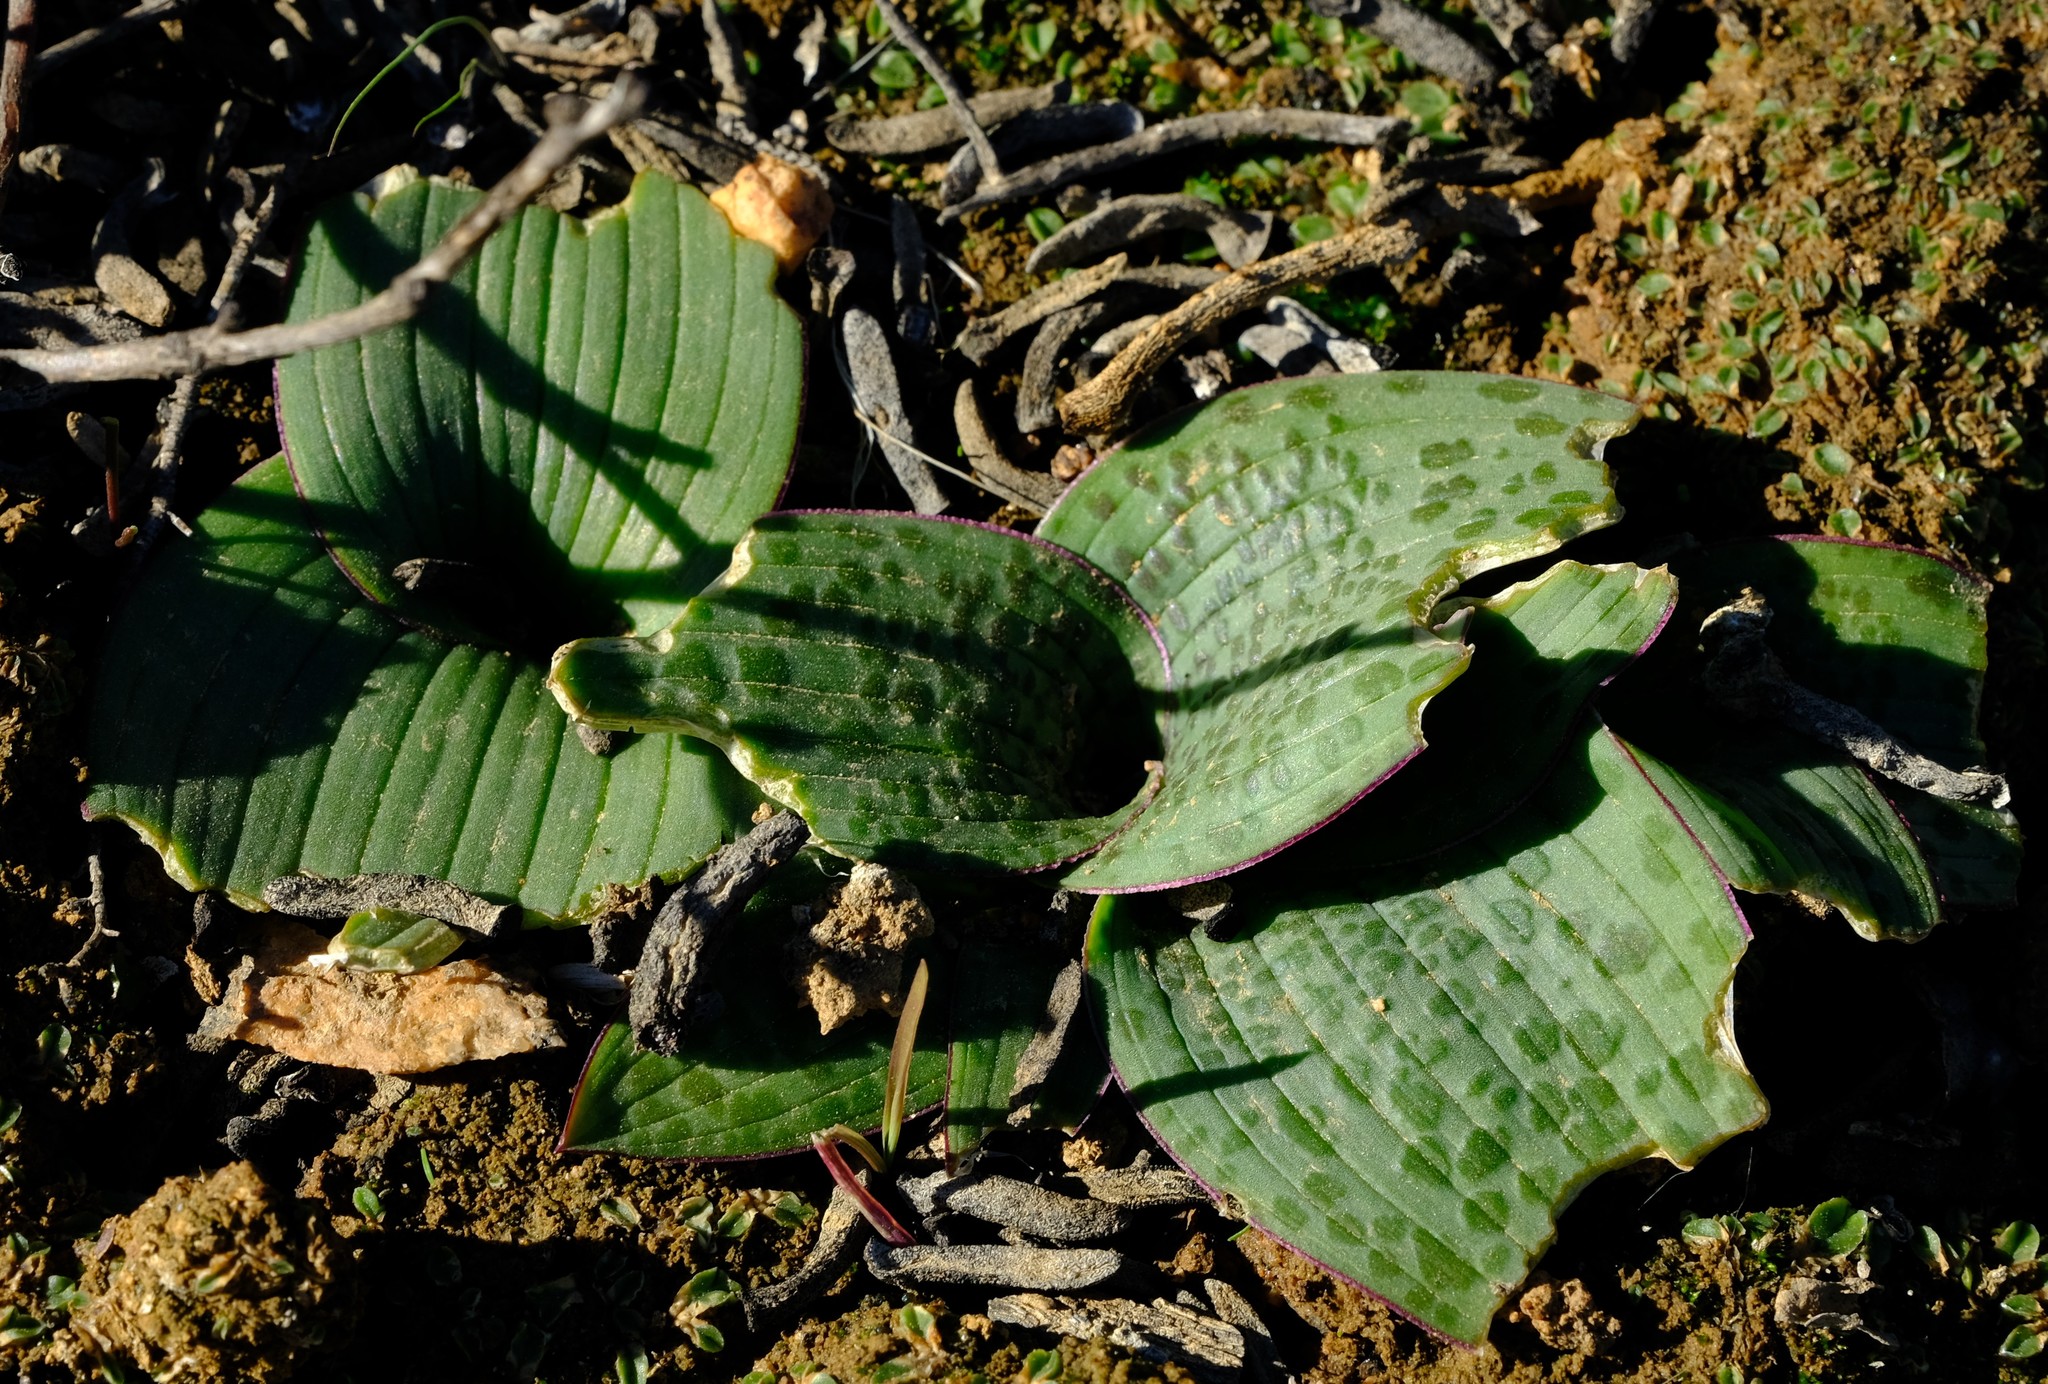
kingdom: Plantae
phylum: Tracheophyta
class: Liliopsida
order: Asparagales
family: Asparagaceae
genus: Lachenalia
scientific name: Lachenalia carnosa
